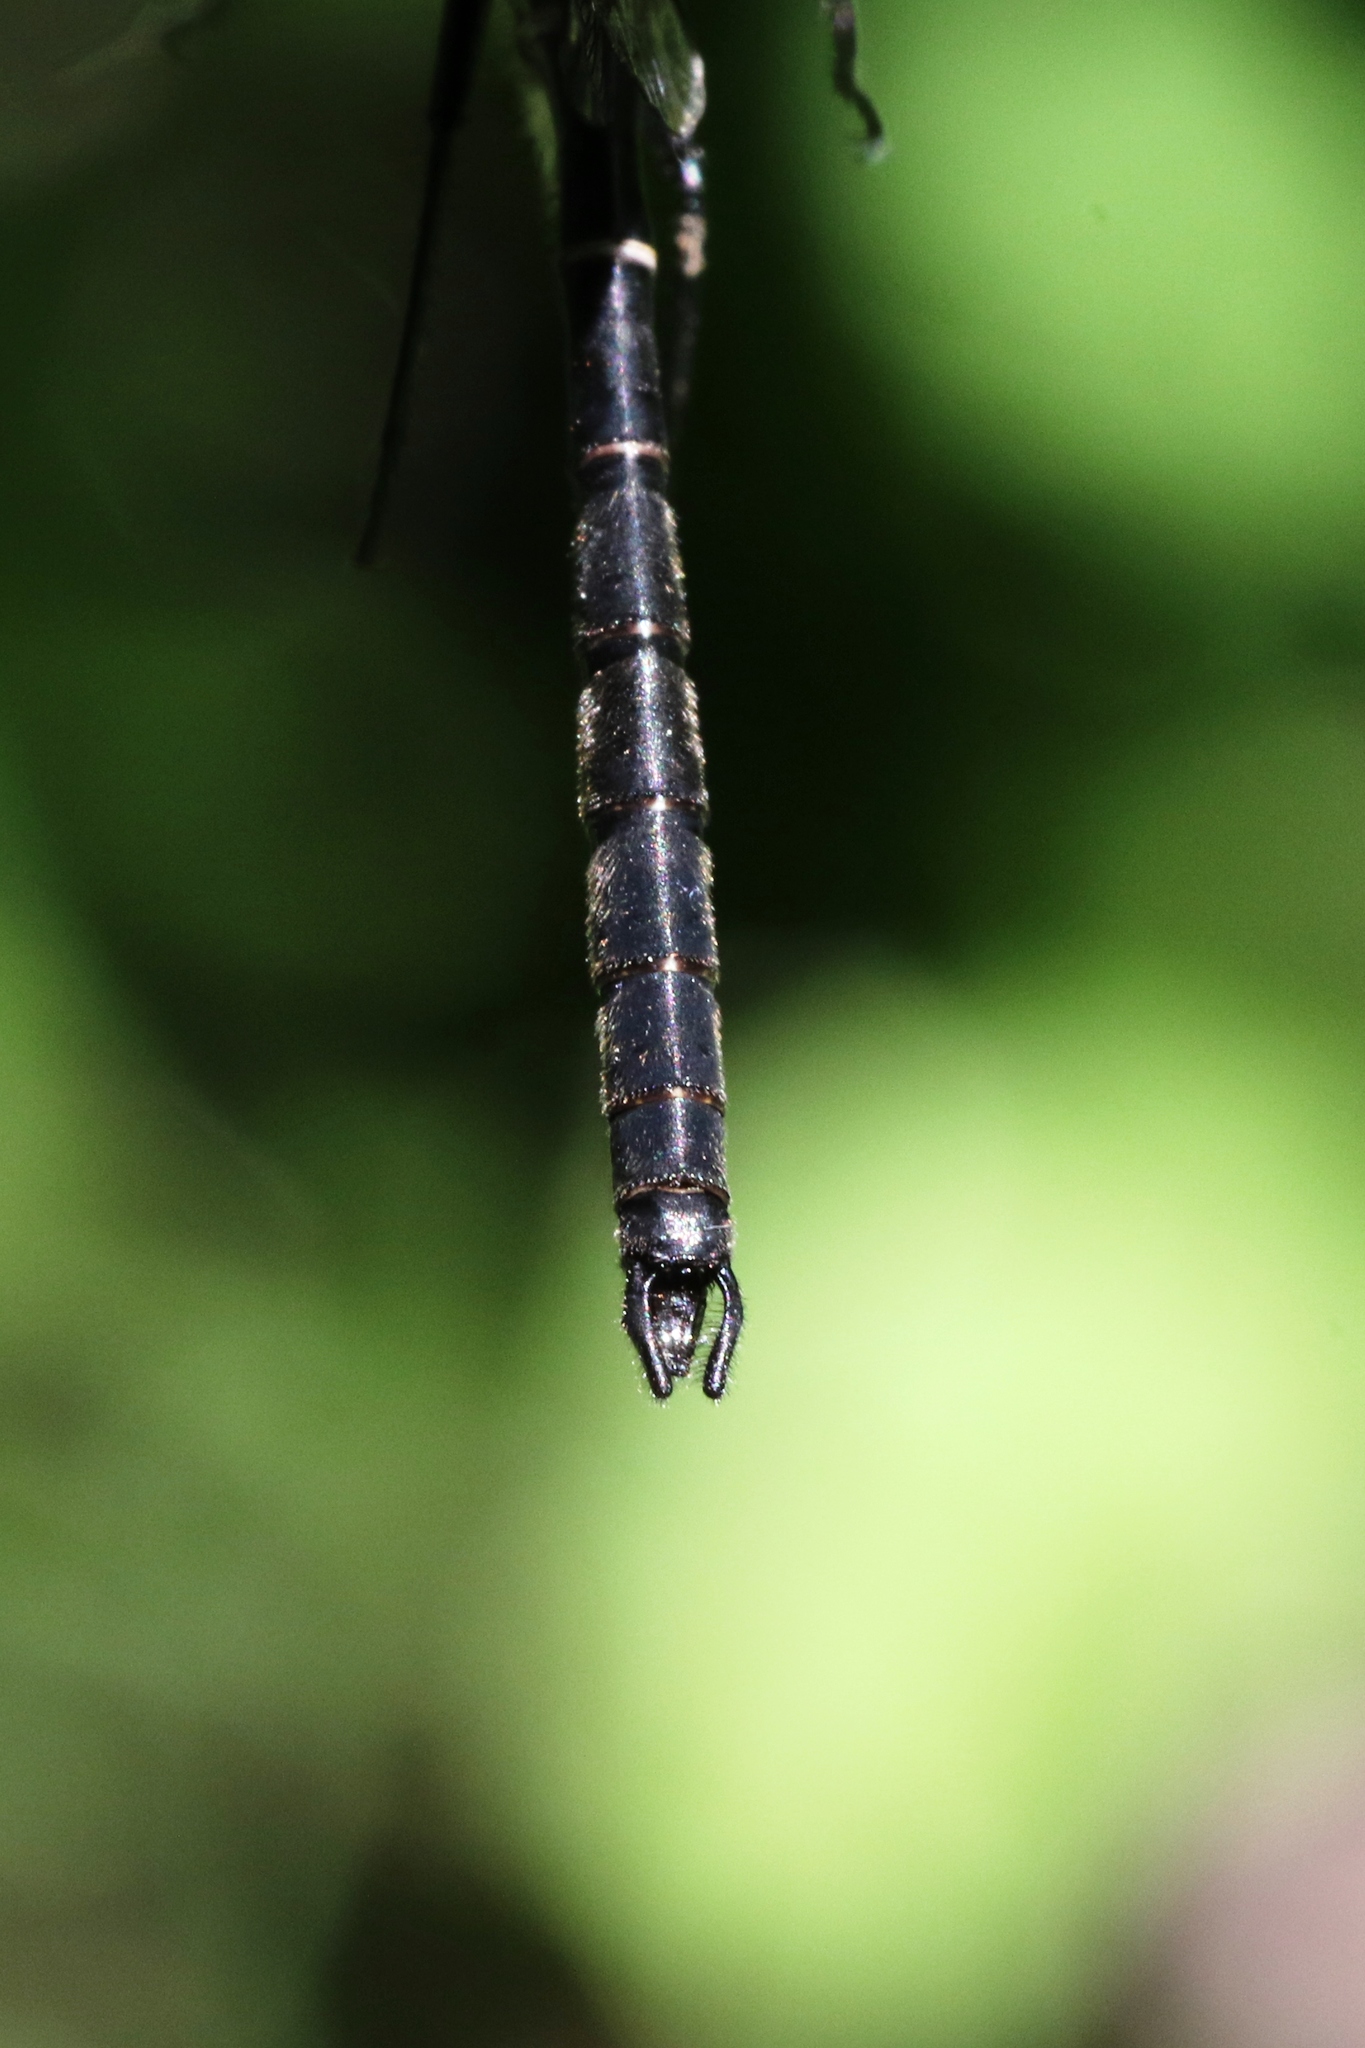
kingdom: Animalia
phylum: Arthropoda
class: Insecta
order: Odonata
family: Corduliidae
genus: Williamsonia
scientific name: Williamsonia fletcheri
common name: Ebony boghaunter
